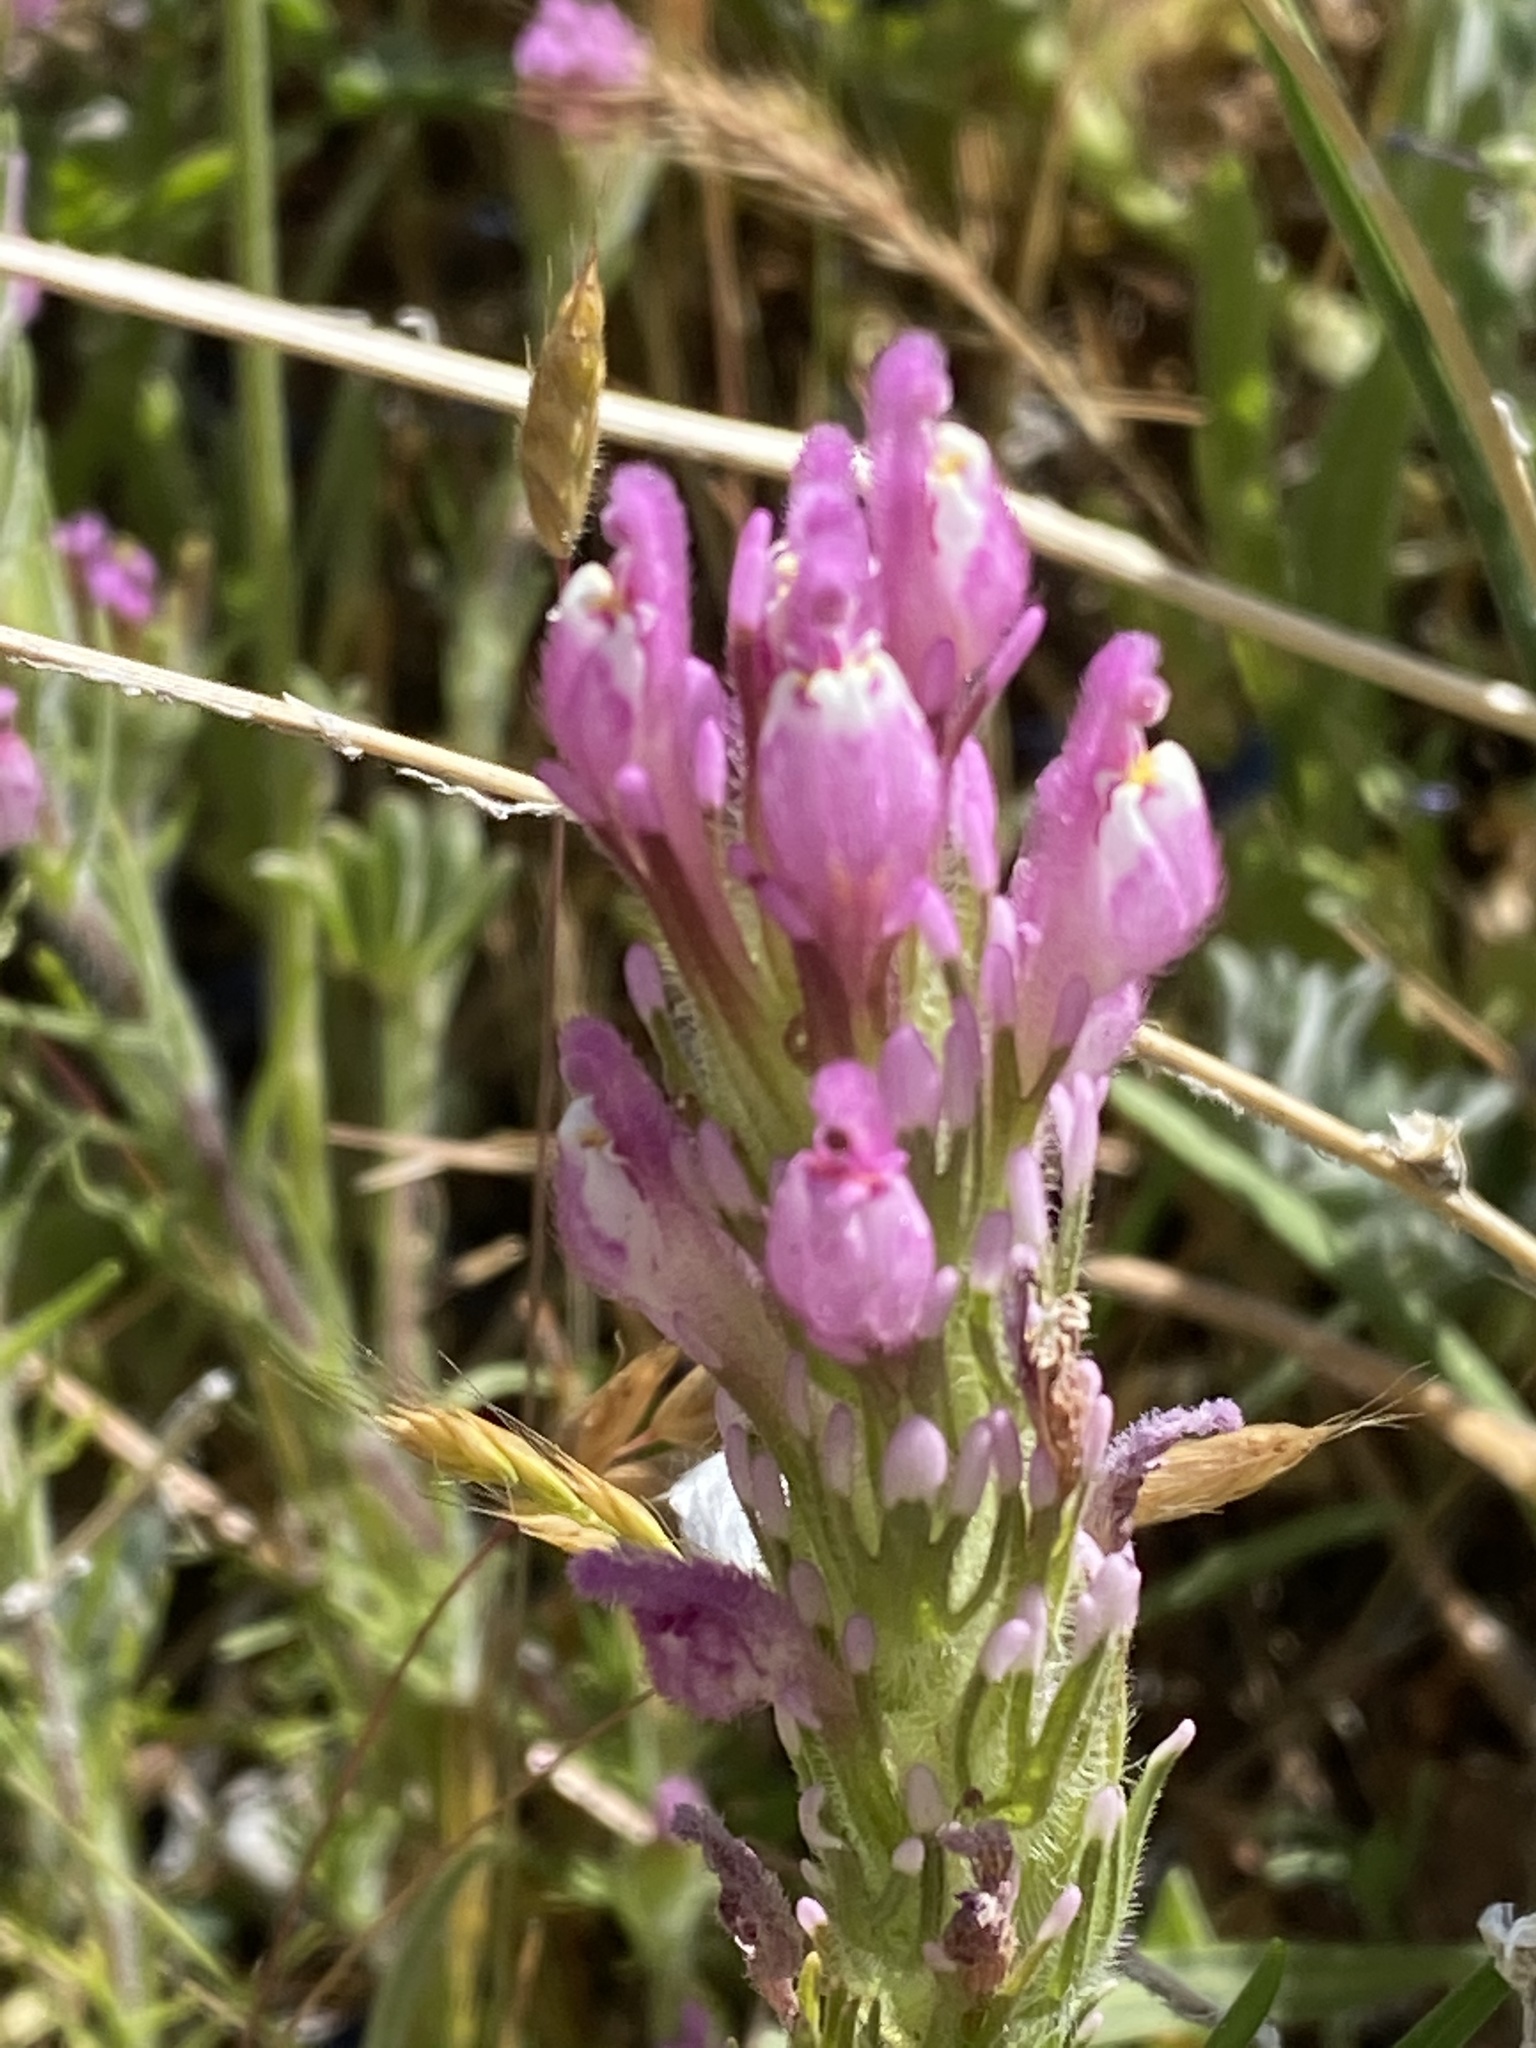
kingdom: Plantae
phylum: Tracheophyta
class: Magnoliopsida
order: Lamiales
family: Orobanchaceae
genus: Castilleja
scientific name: Castilleja exserta
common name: Purple owl-clover
